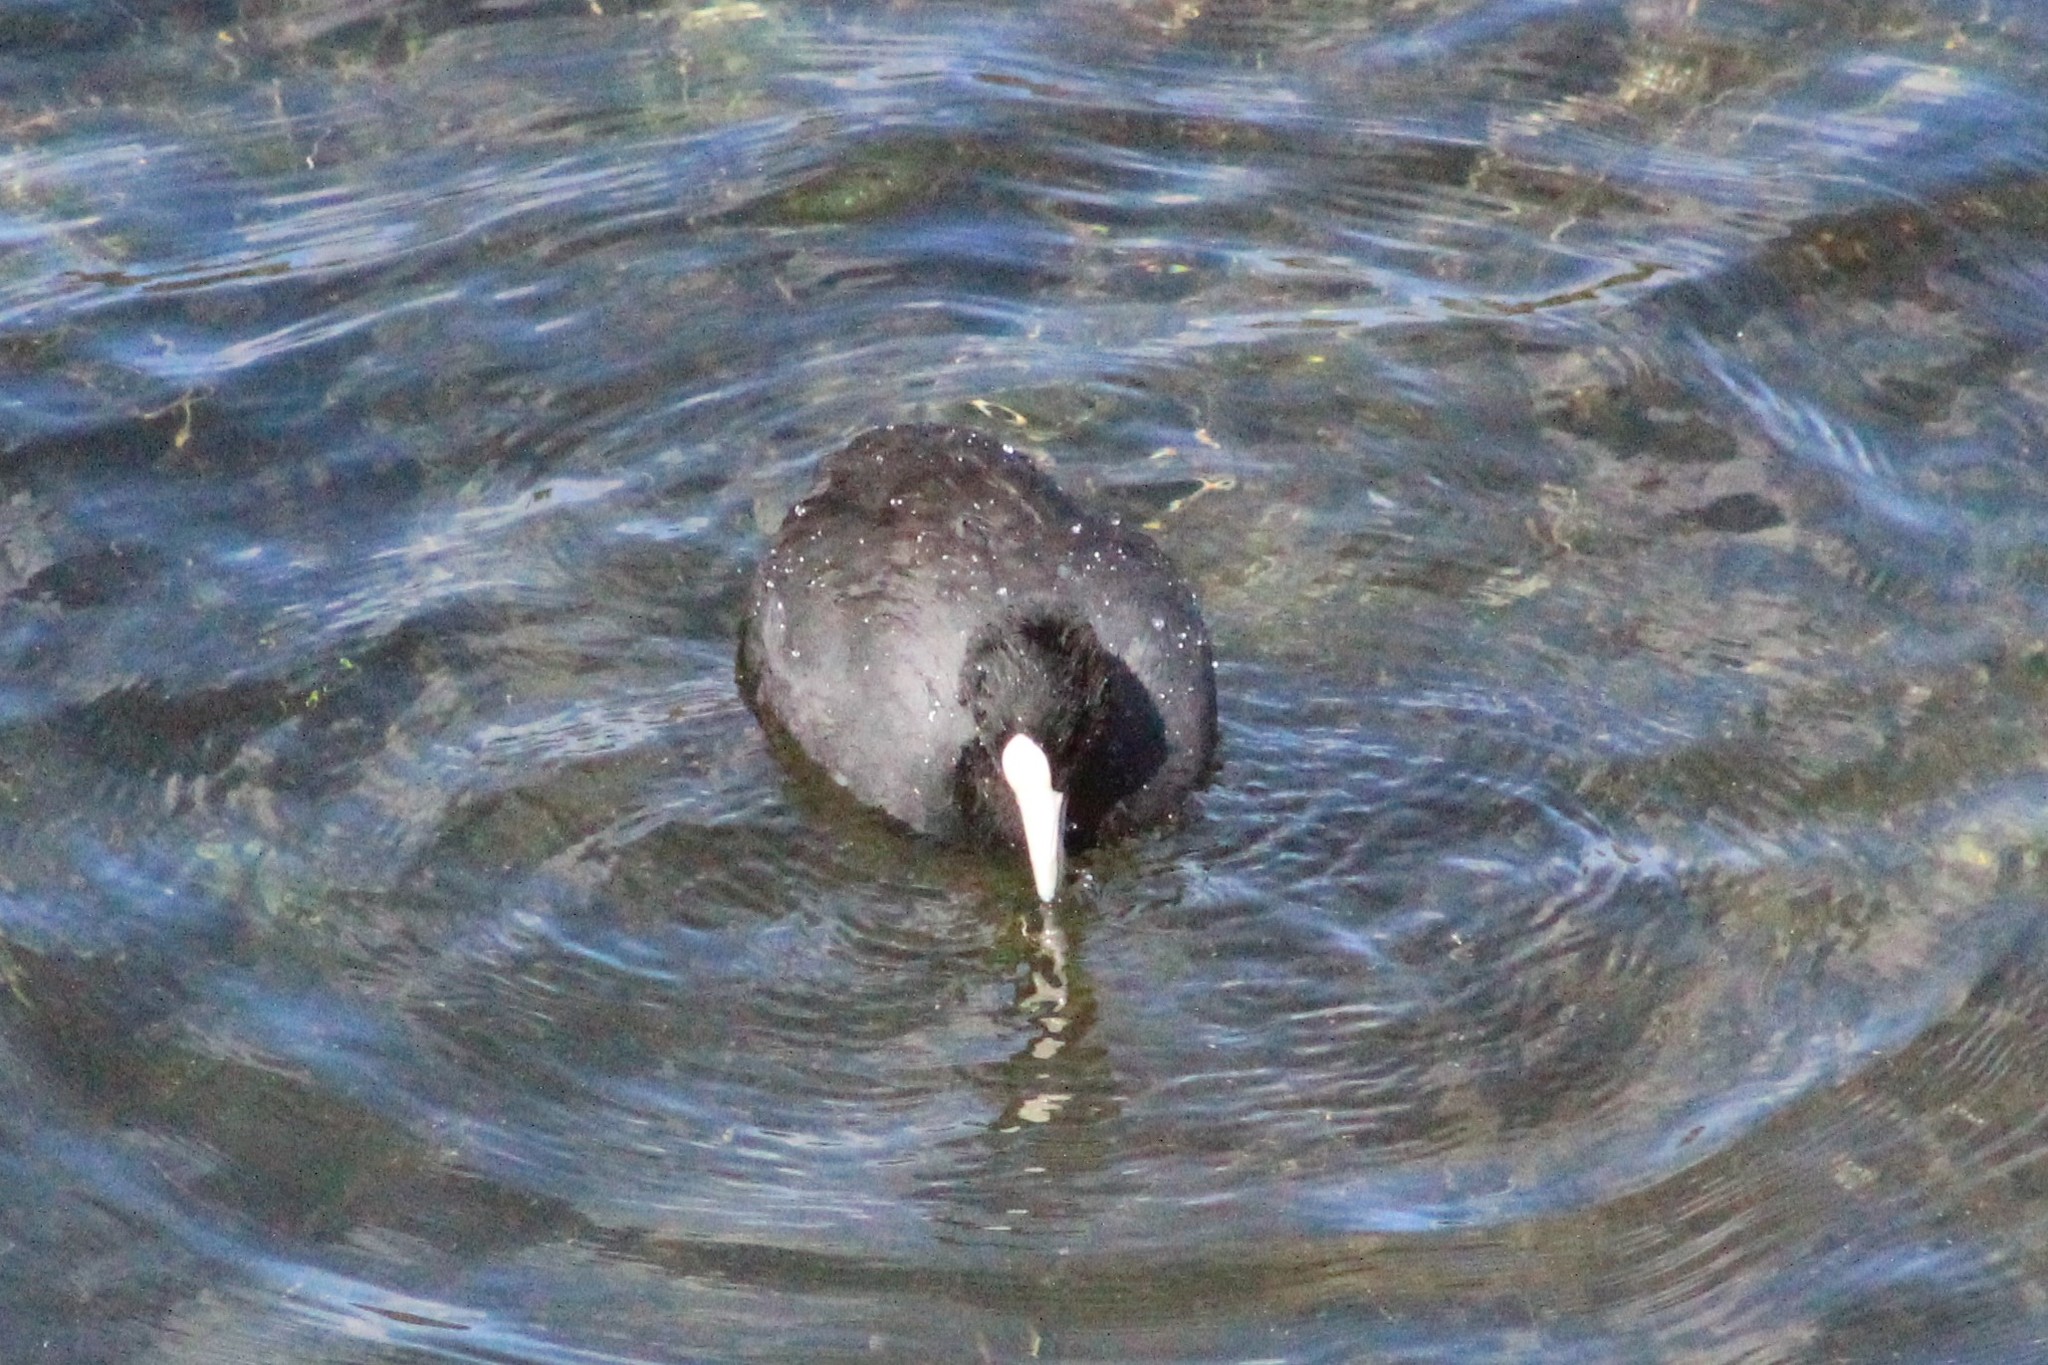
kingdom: Animalia
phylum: Chordata
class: Aves
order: Gruiformes
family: Rallidae
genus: Fulica
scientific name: Fulica ardesiaca
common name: Andean coot
